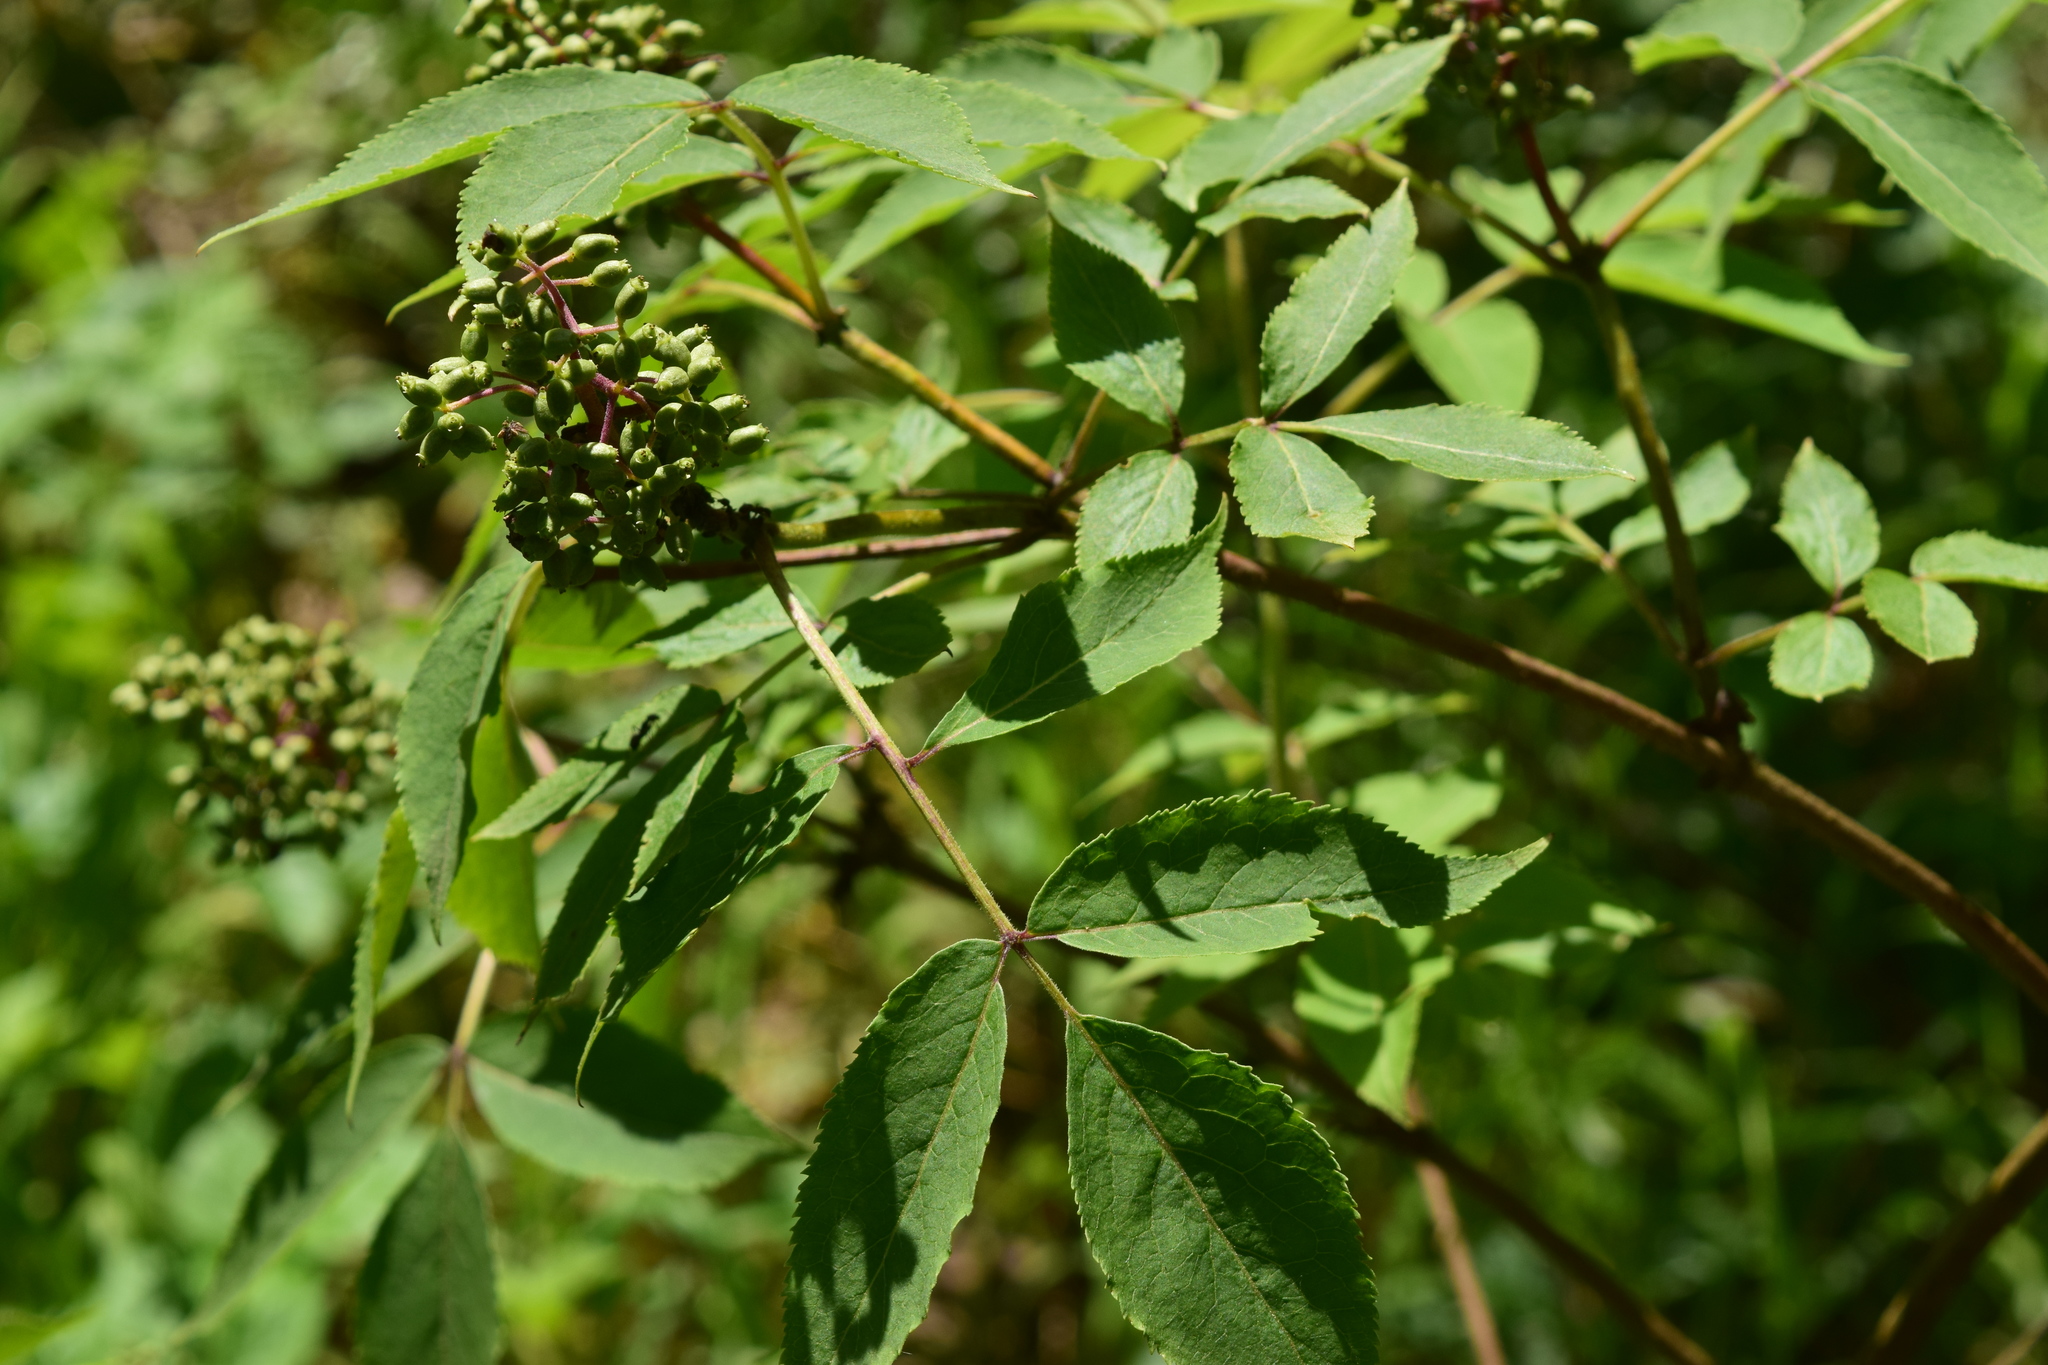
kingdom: Plantae
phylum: Tracheophyta
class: Magnoliopsida
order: Dipsacales
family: Viburnaceae
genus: Sambucus
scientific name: Sambucus racemosa
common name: Red-berried elder
